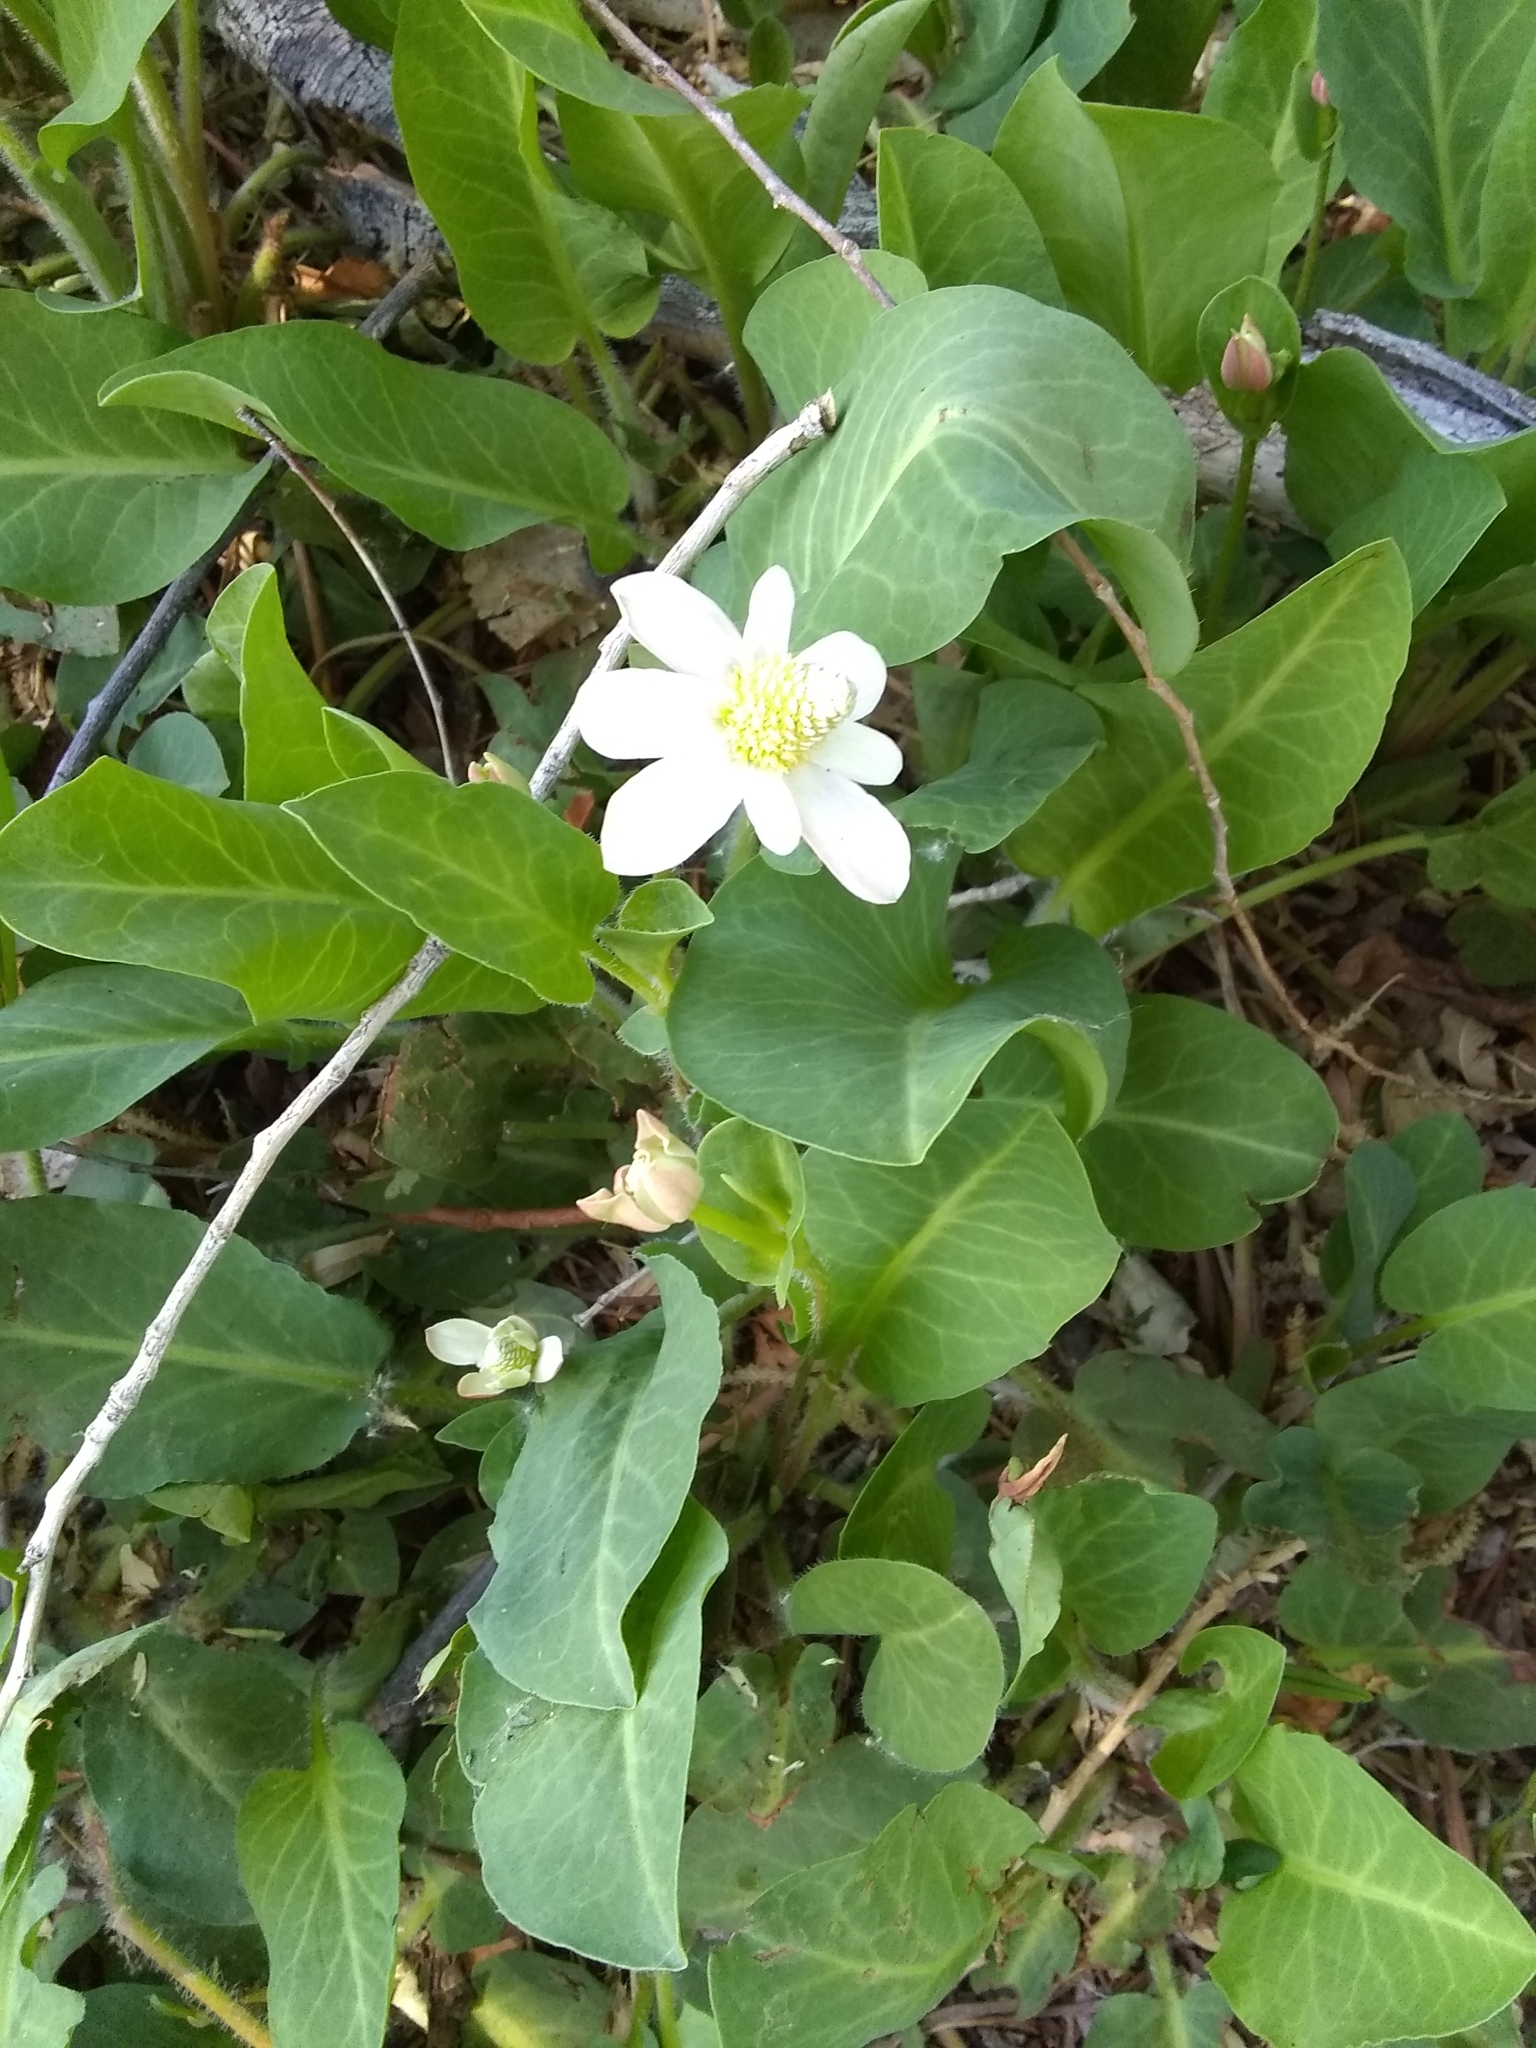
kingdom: Plantae
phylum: Tracheophyta
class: Magnoliopsida
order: Piperales
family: Saururaceae
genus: Anemopsis
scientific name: Anemopsis californica
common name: Apache-beads
